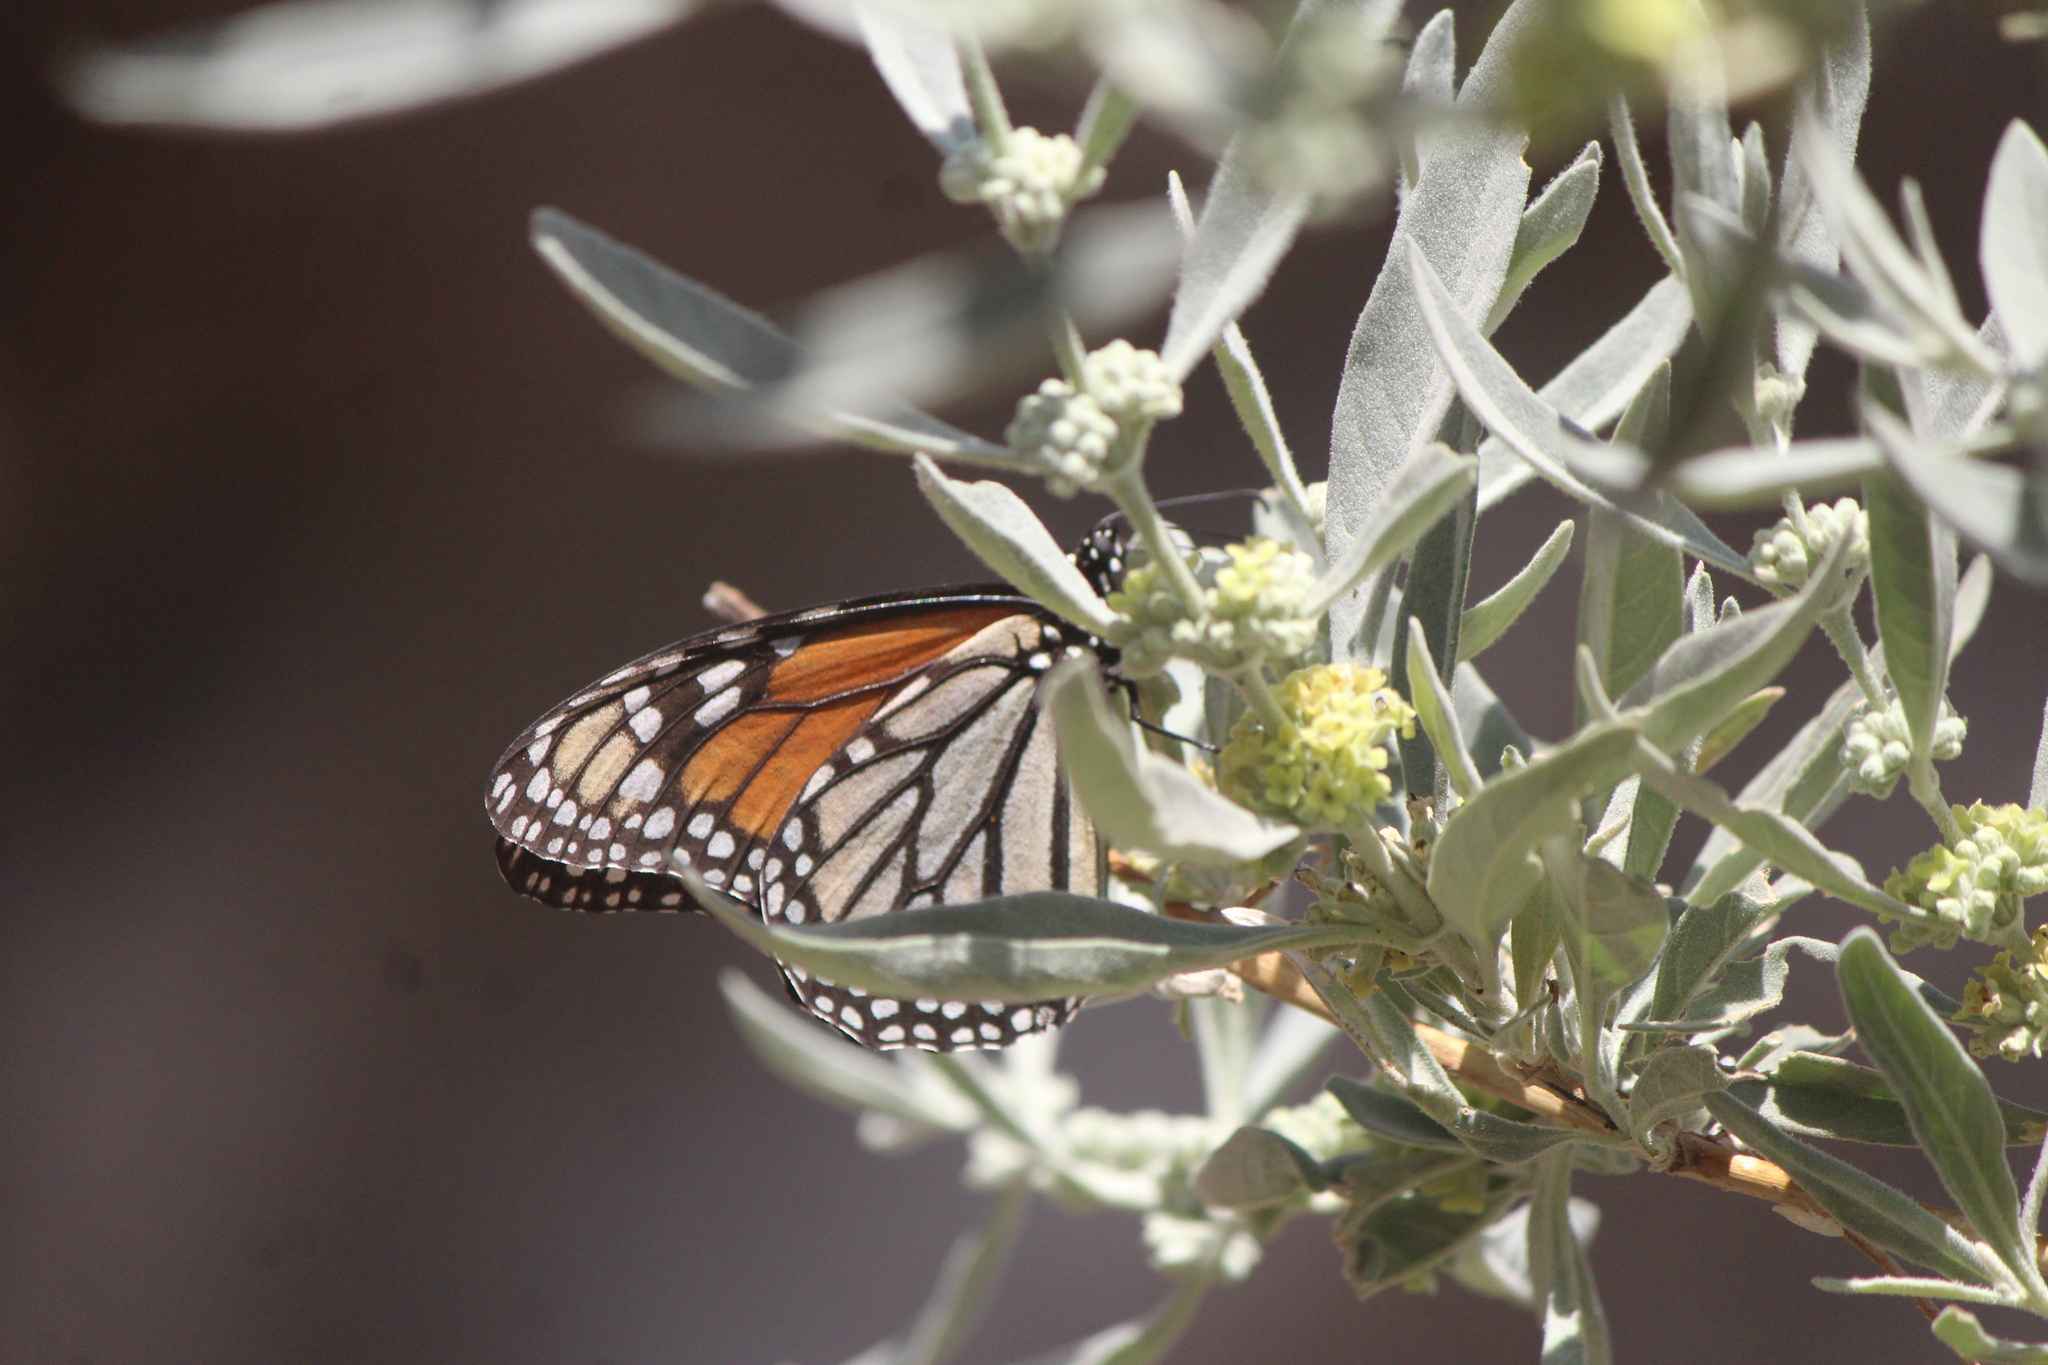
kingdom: Animalia
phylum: Arthropoda
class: Insecta
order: Lepidoptera
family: Nymphalidae
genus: Danaus
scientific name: Danaus plexippus
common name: Monarch
